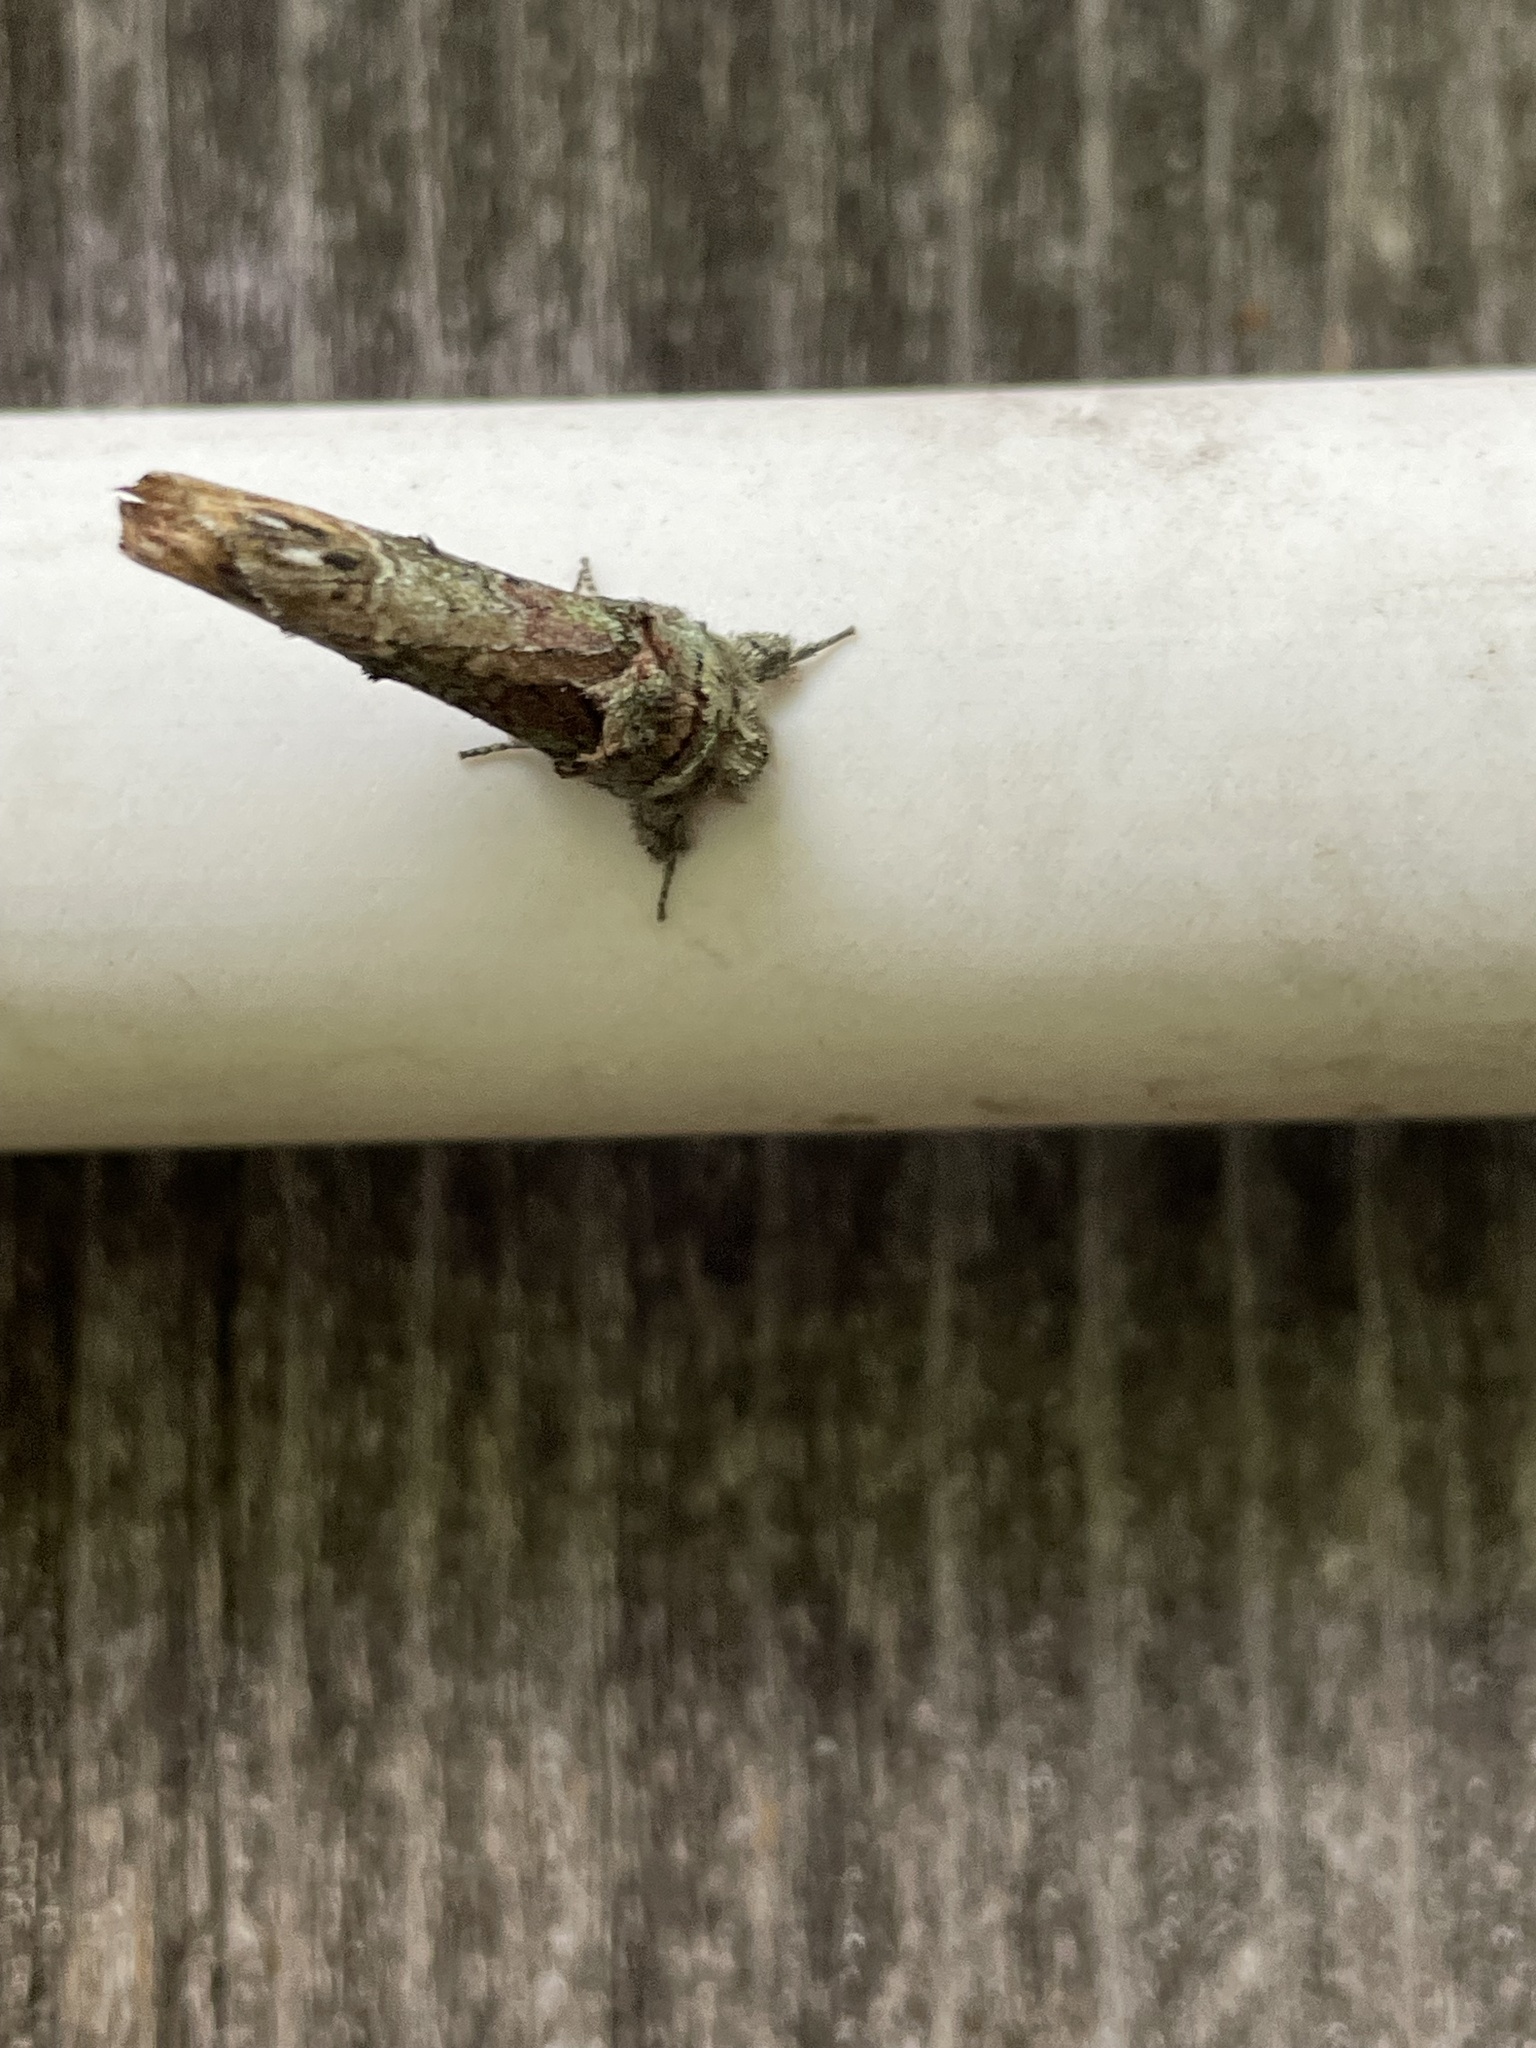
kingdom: Animalia
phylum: Arthropoda
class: Insecta
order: Lepidoptera
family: Notodontidae
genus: Schizura
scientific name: Schizura
